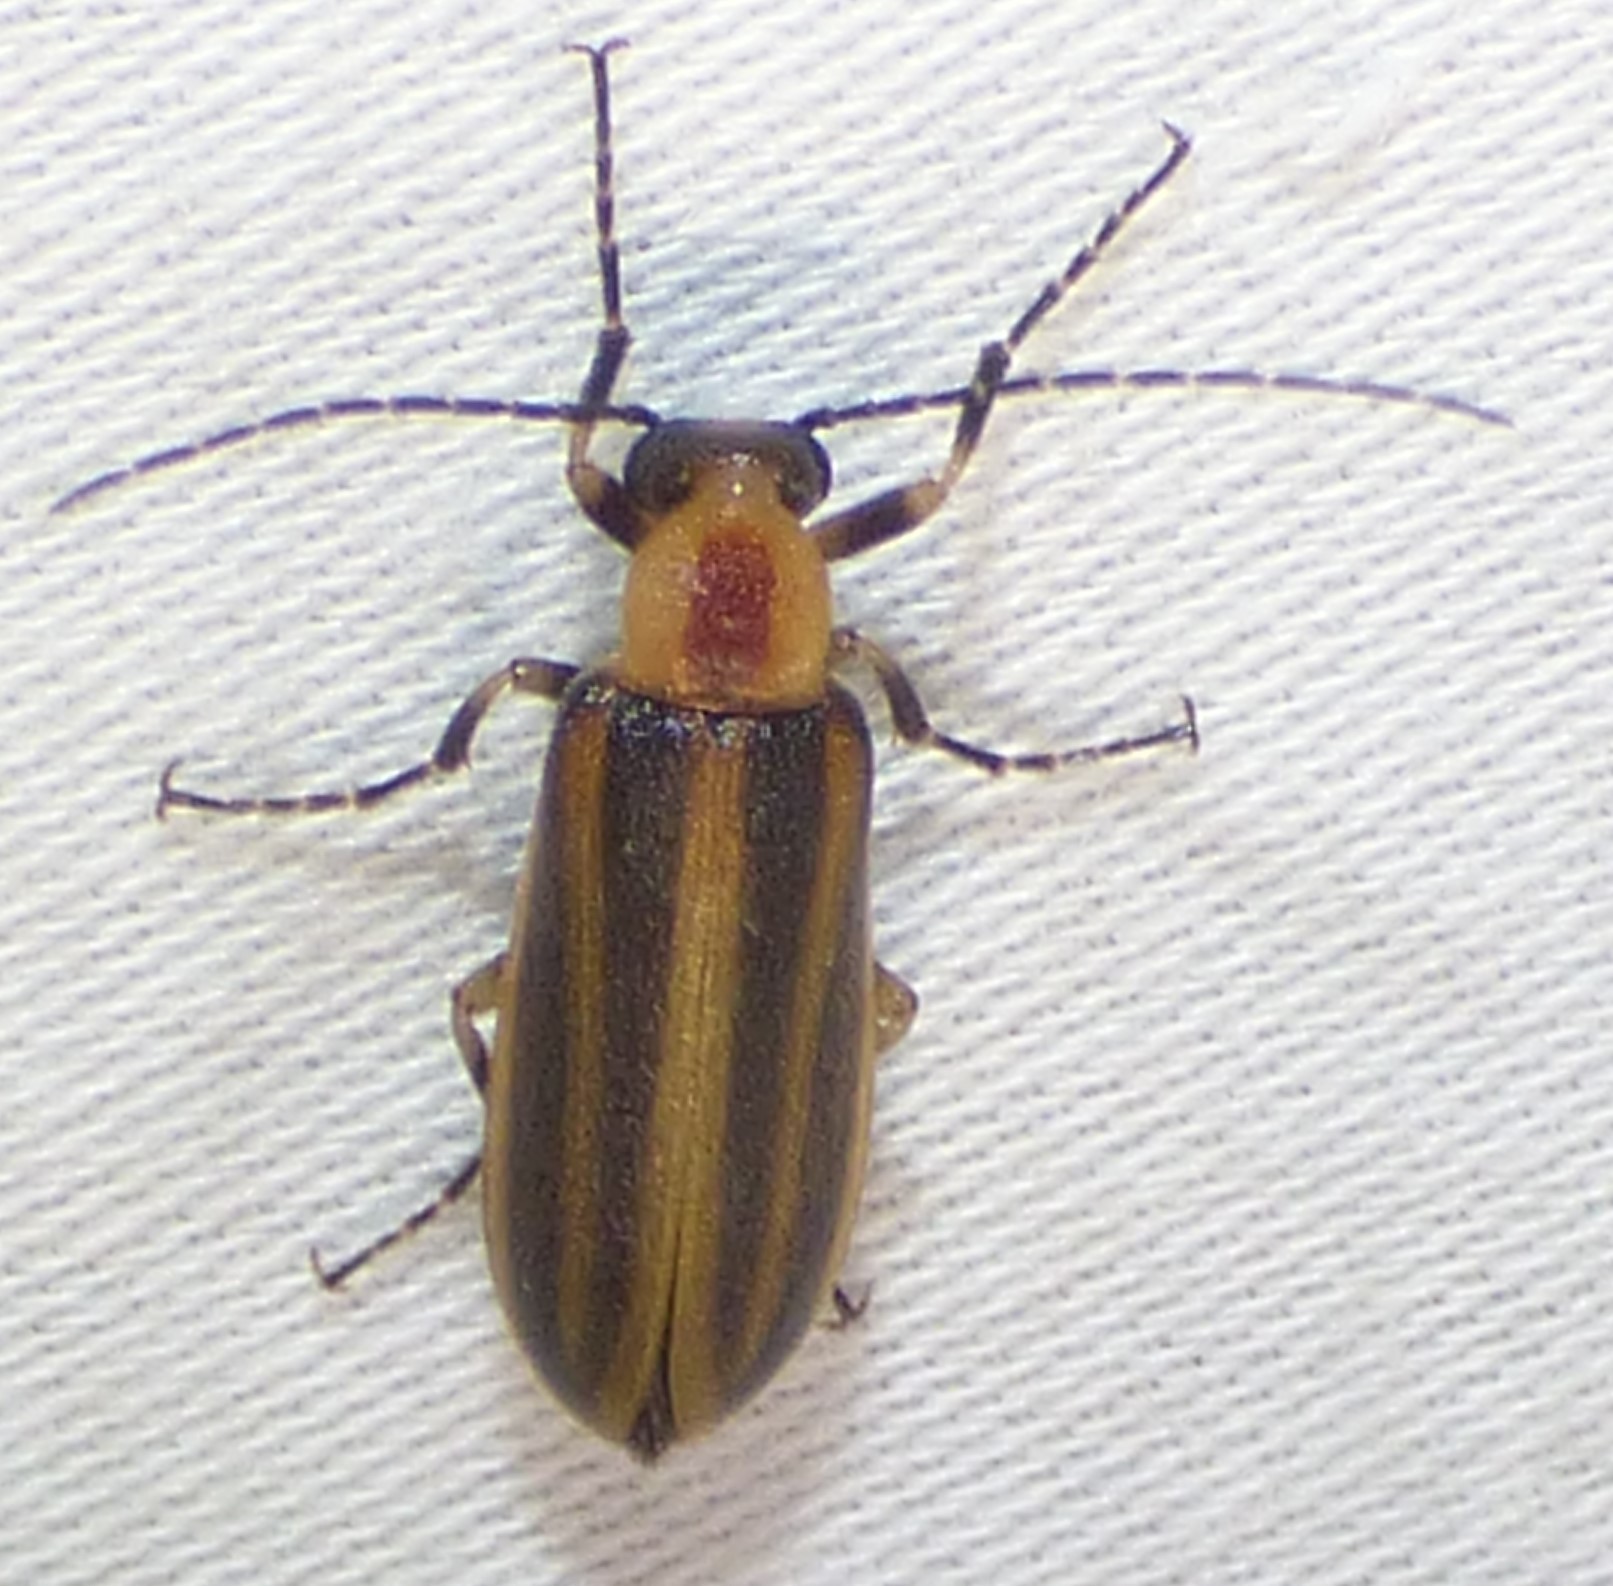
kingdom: Animalia
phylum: Arthropoda
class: Insecta
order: Coleoptera
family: Meloidae
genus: Pseudozonitis
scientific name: Pseudozonitis longicornis
